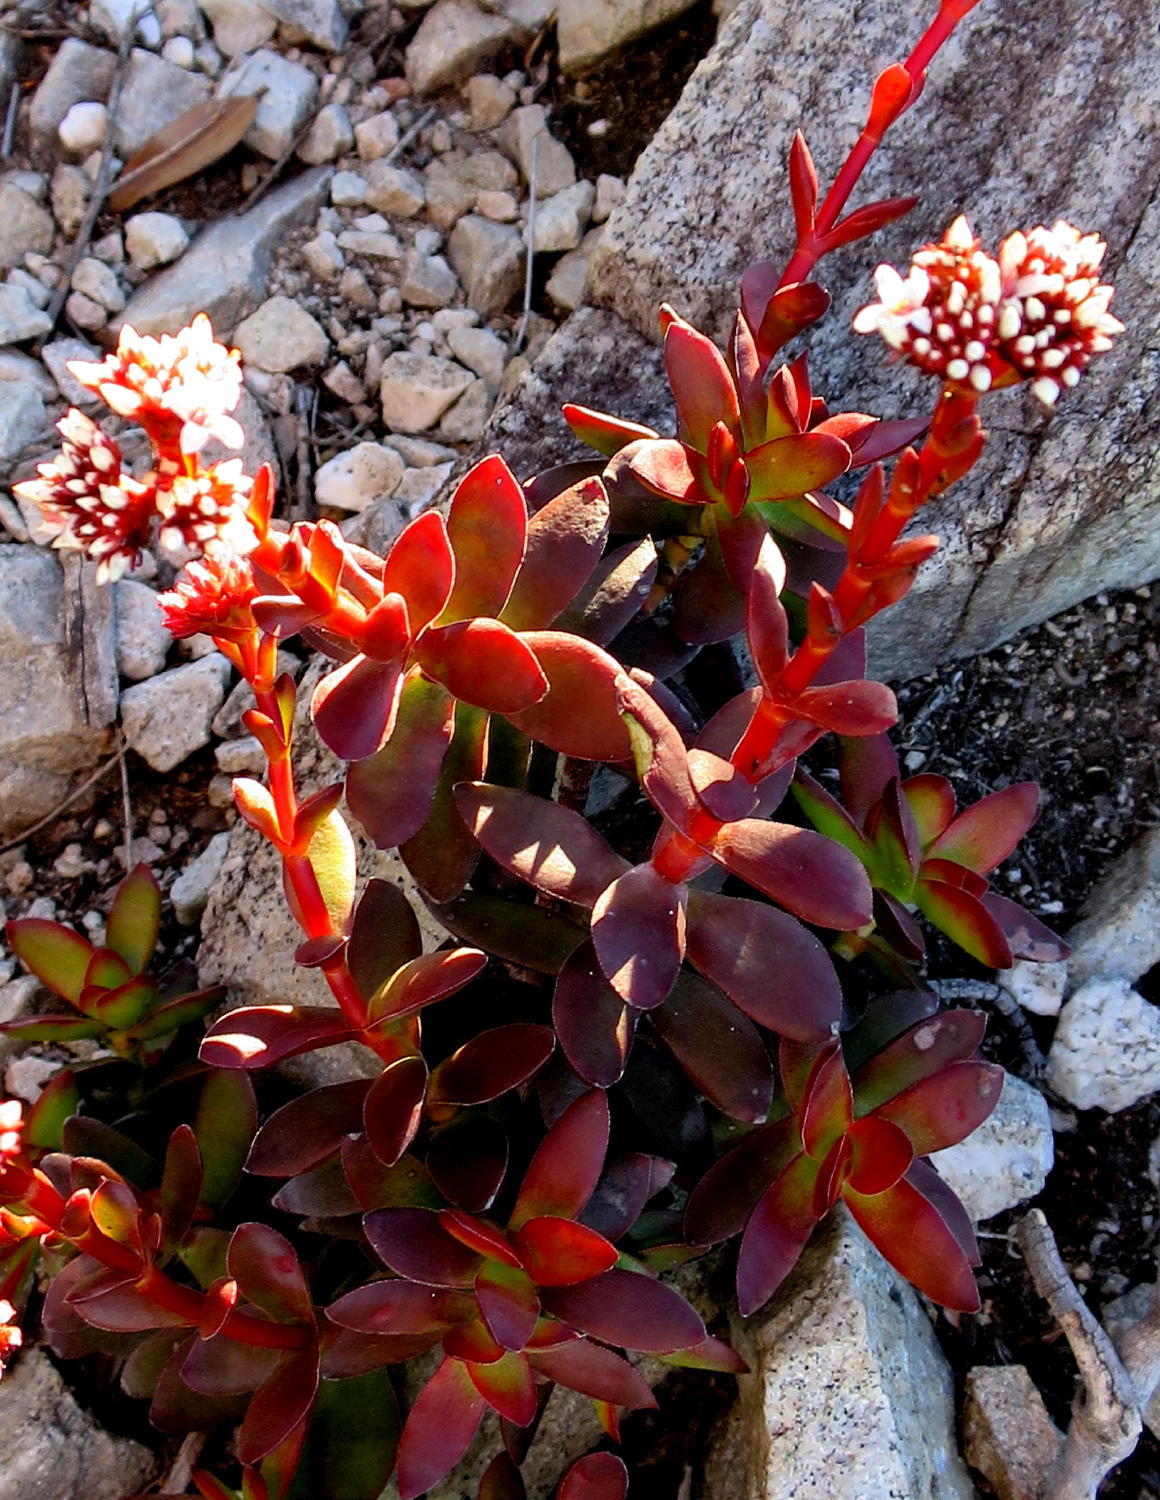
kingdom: Plantae
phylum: Tracheophyta
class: Magnoliopsida
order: Saxifragales
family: Crassulaceae
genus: Crassula
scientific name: Crassula rubricaulis
